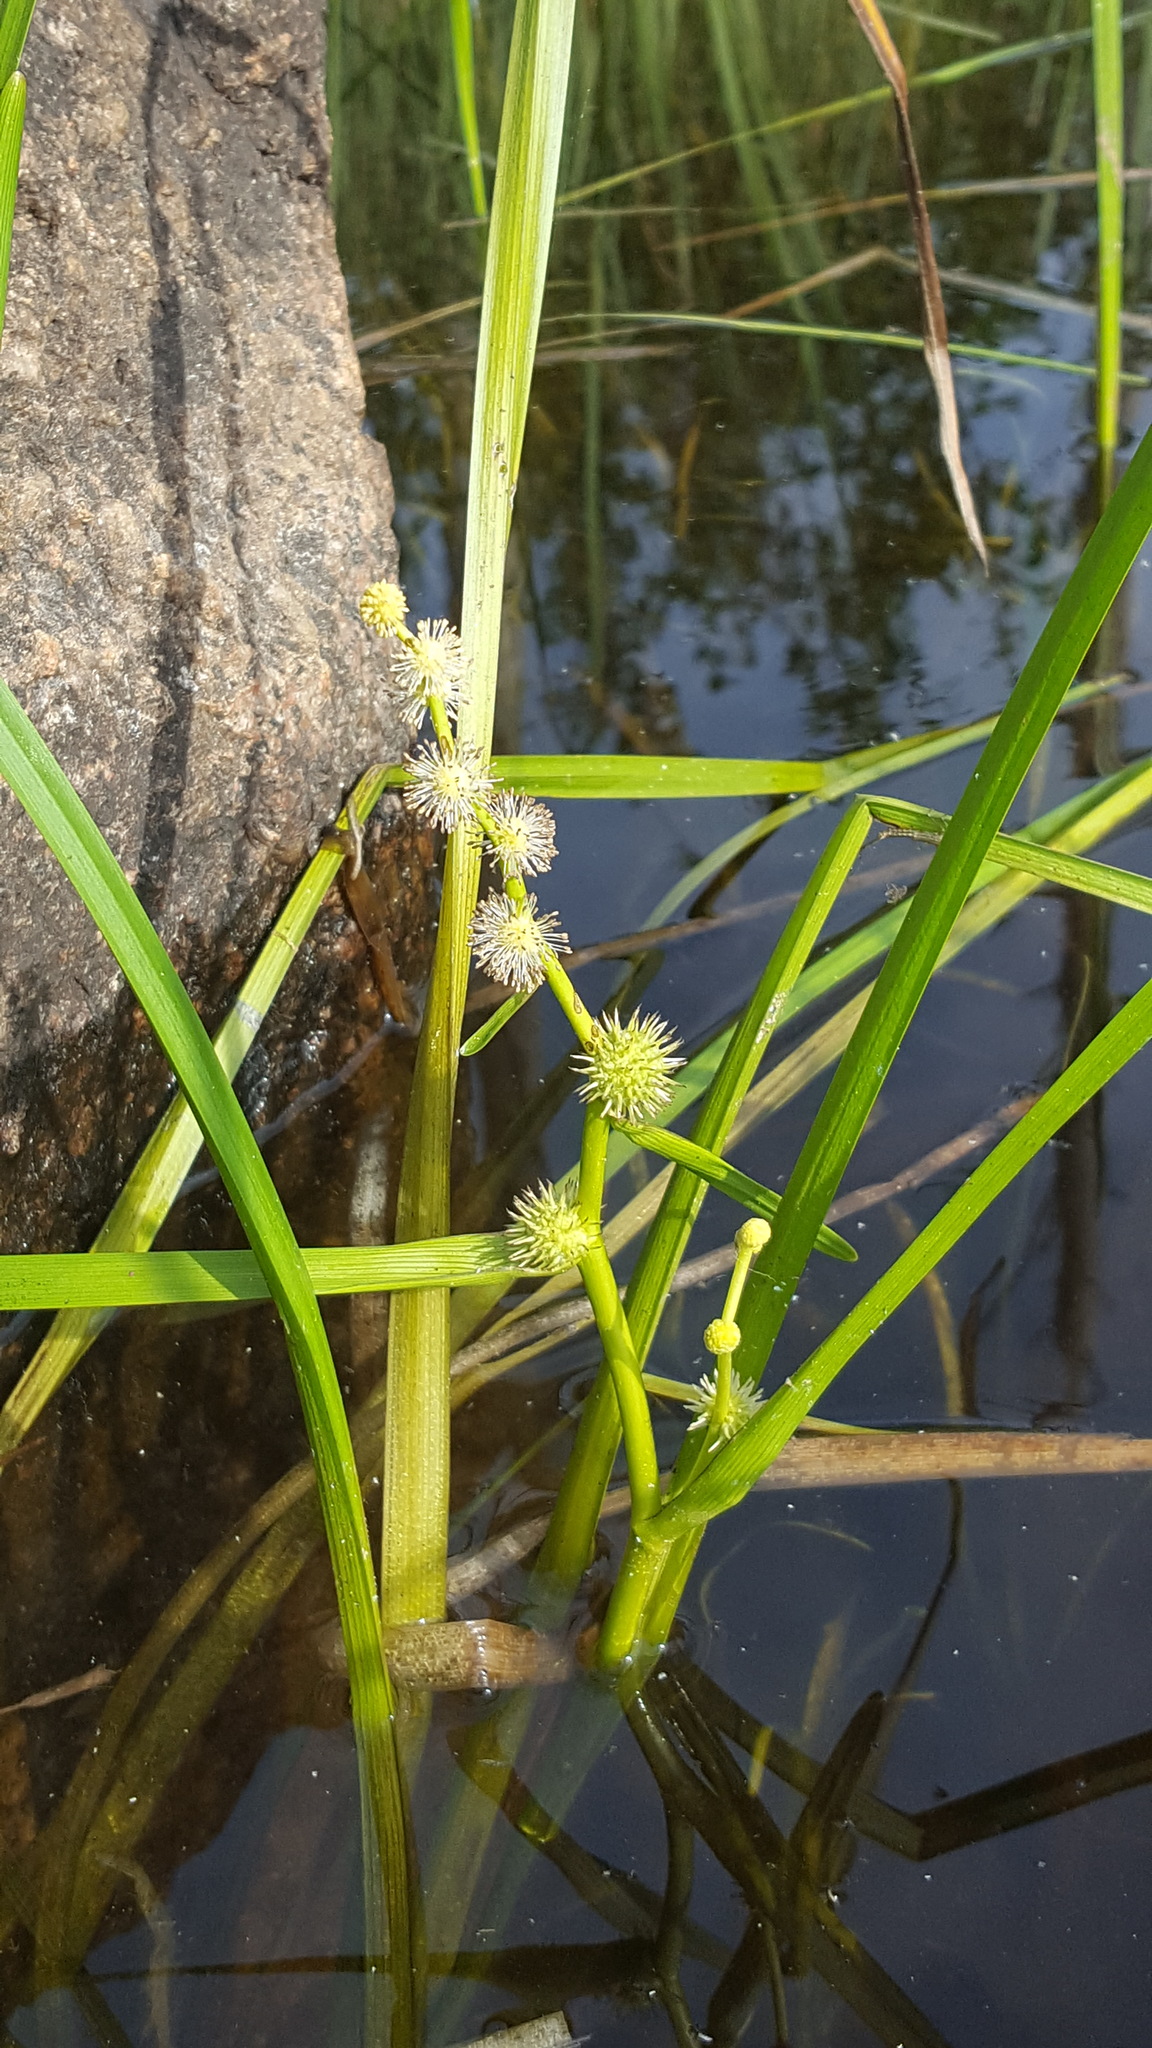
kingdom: Plantae
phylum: Tracheophyta
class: Liliopsida
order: Poales
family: Typhaceae
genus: Sparganium
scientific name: Sparganium emersum
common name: Unbranched bur-reed
